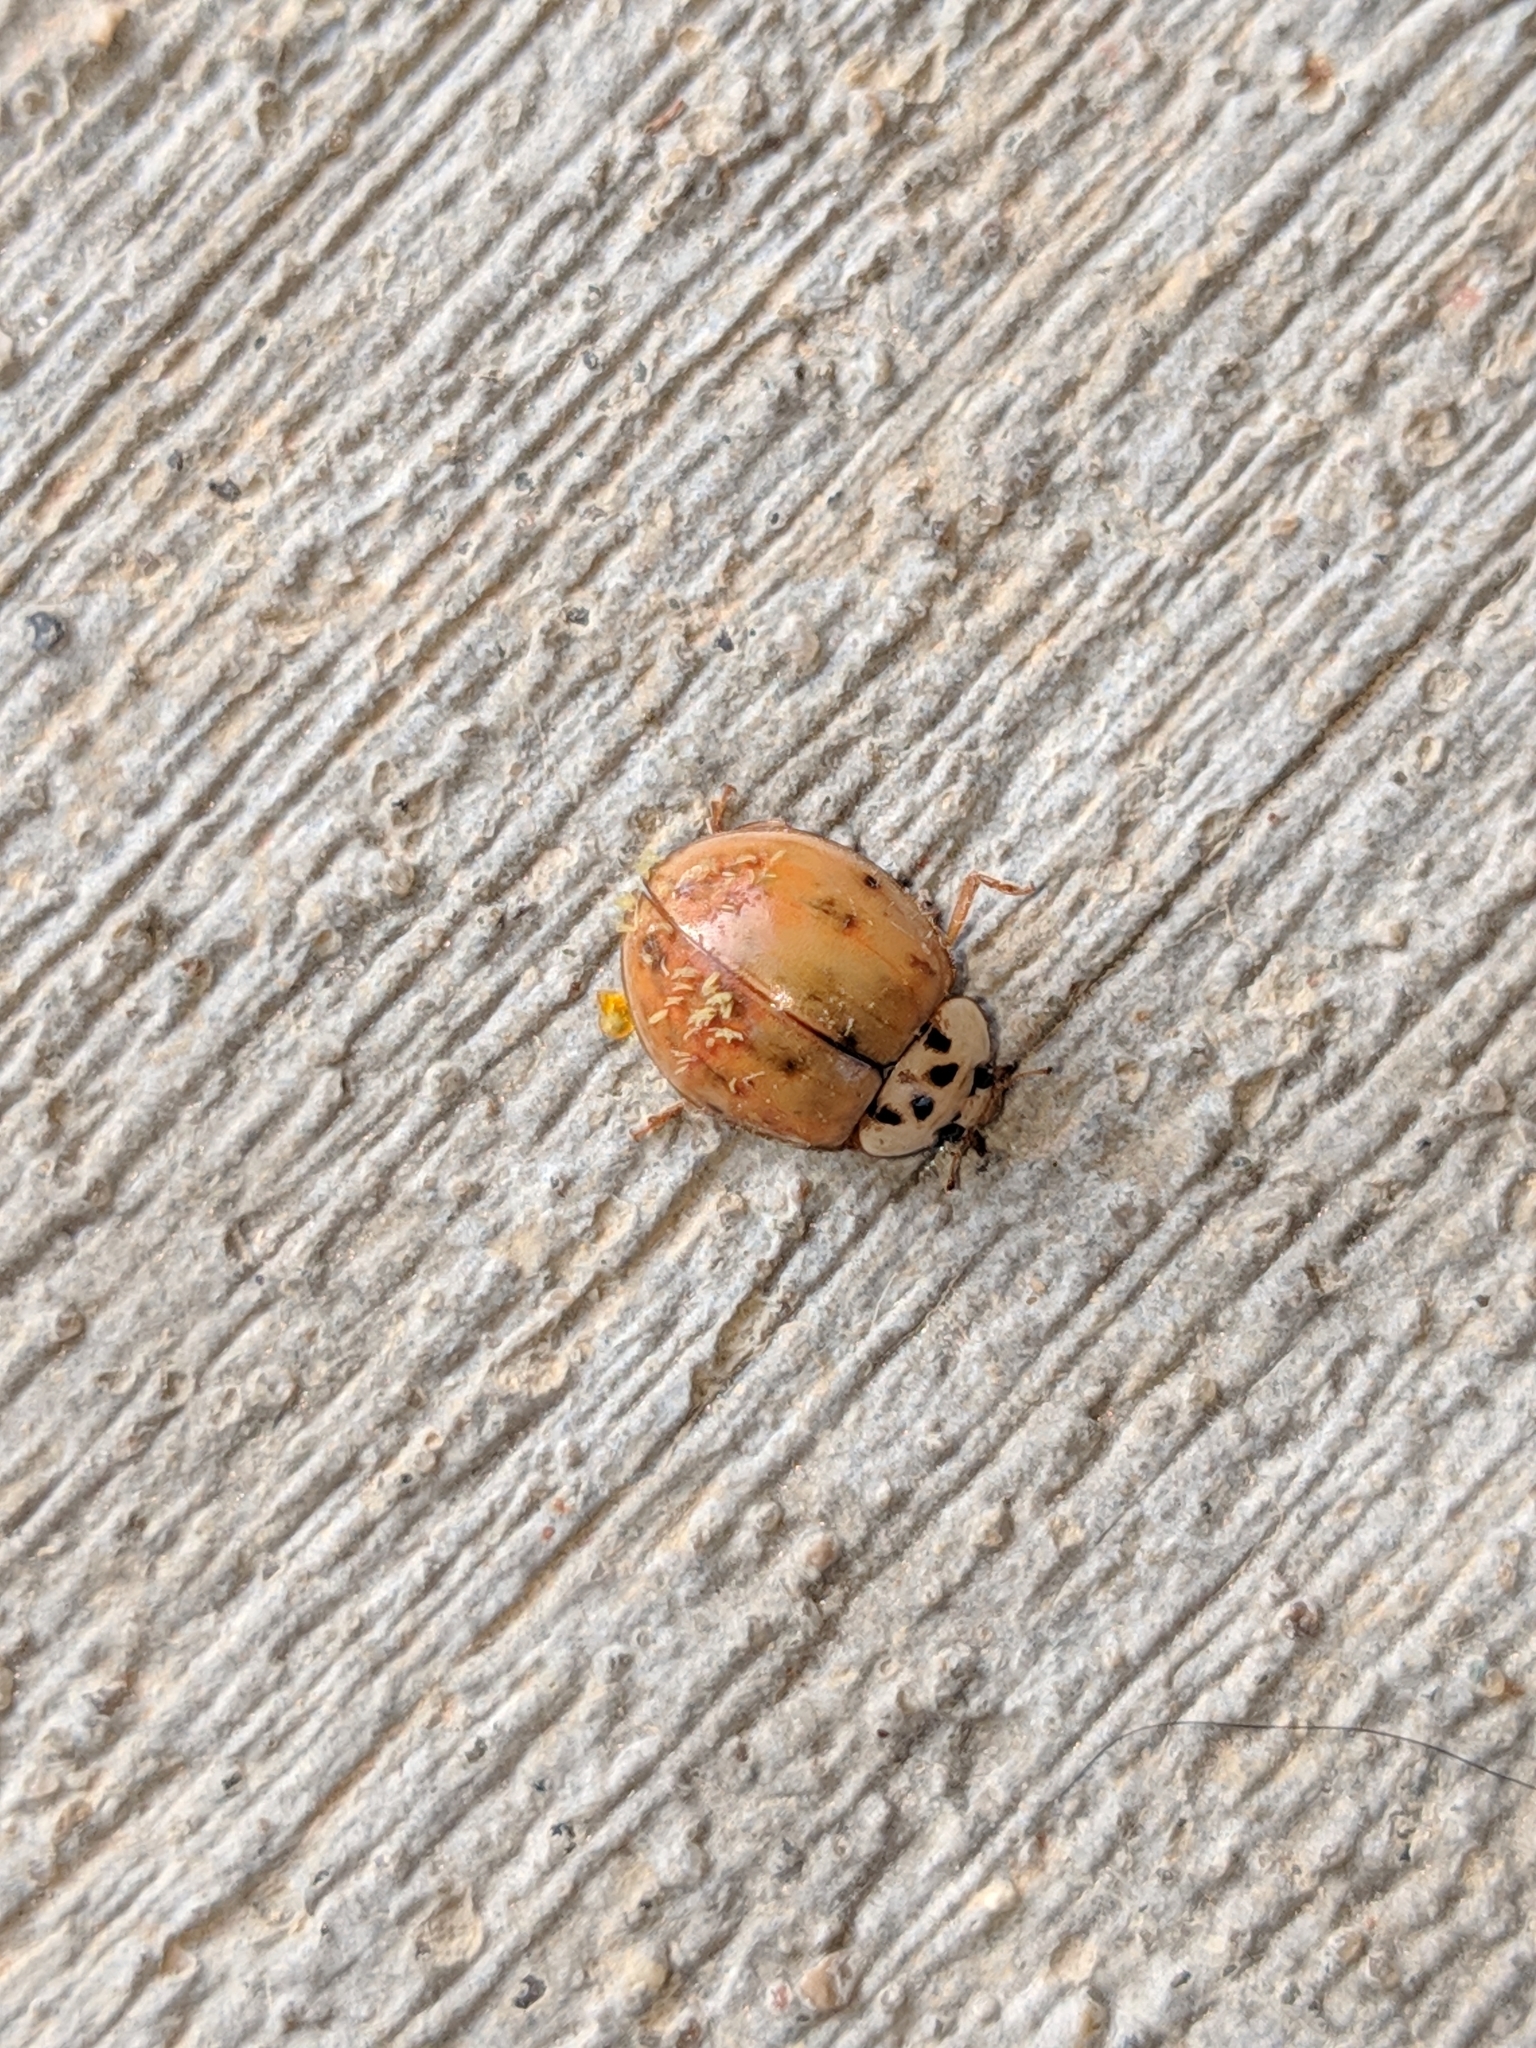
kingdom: Animalia
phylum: Arthropoda
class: Insecta
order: Coleoptera
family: Coccinellidae
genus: Harmonia
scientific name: Harmonia axyridis
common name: Harlequin ladybird
